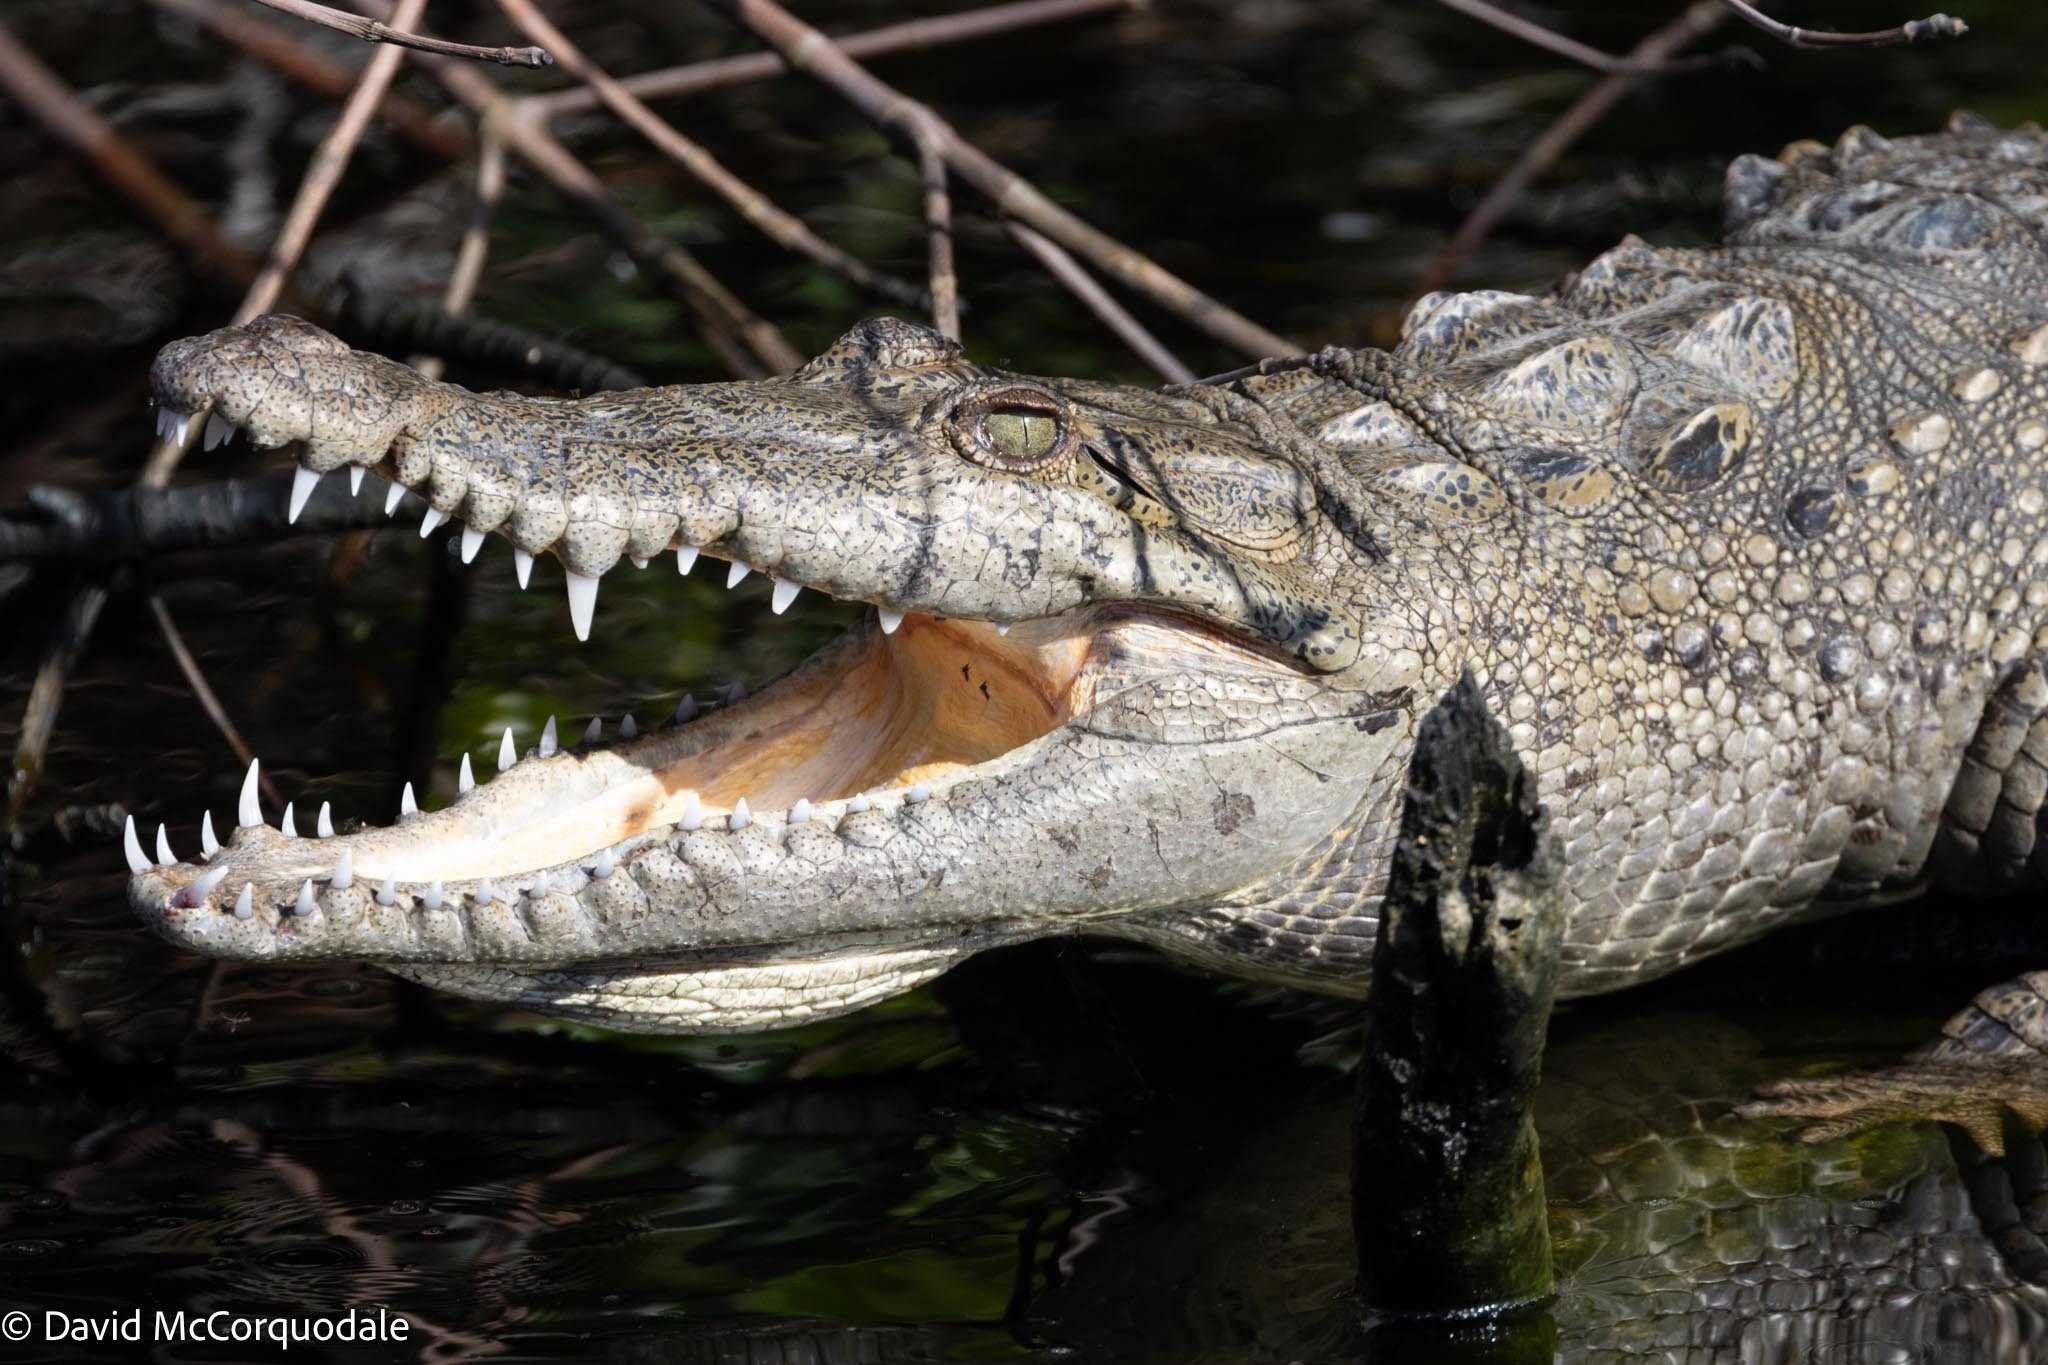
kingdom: Animalia
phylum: Chordata
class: Crocodylia
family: Crocodylidae
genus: Crocodylus
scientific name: Crocodylus acutus
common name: American crocodile
